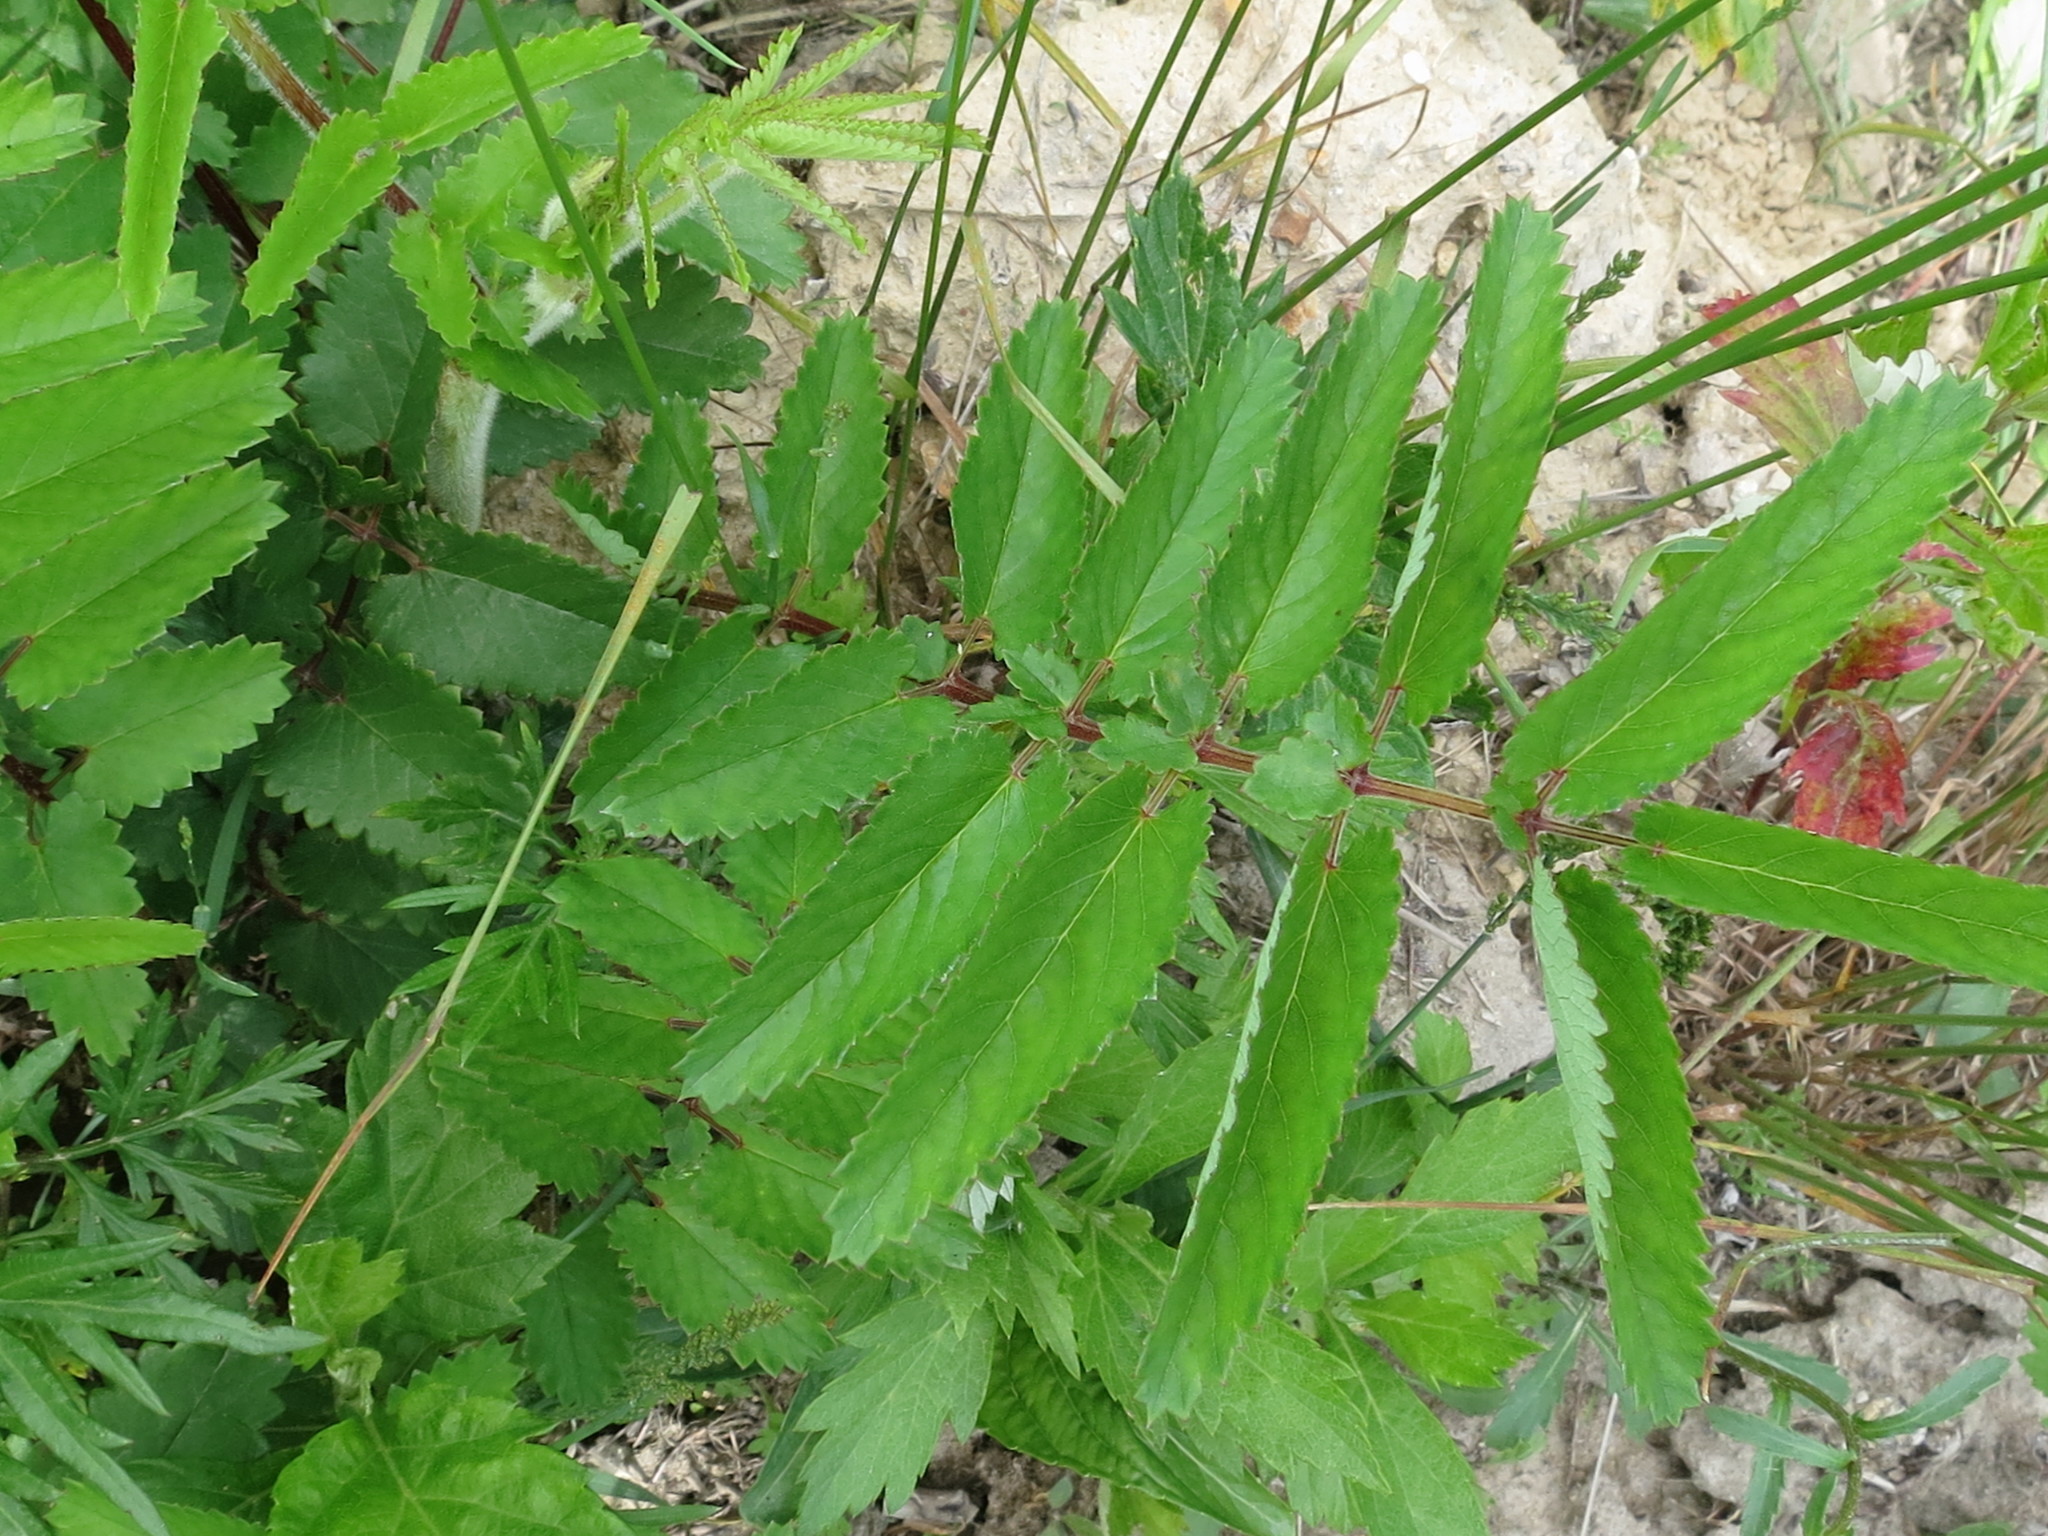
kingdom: Plantae
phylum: Tracheophyta
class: Magnoliopsida
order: Rosales
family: Rosaceae
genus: Sanguisorba
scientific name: Sanguisorba officinalis
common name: Great burnet
